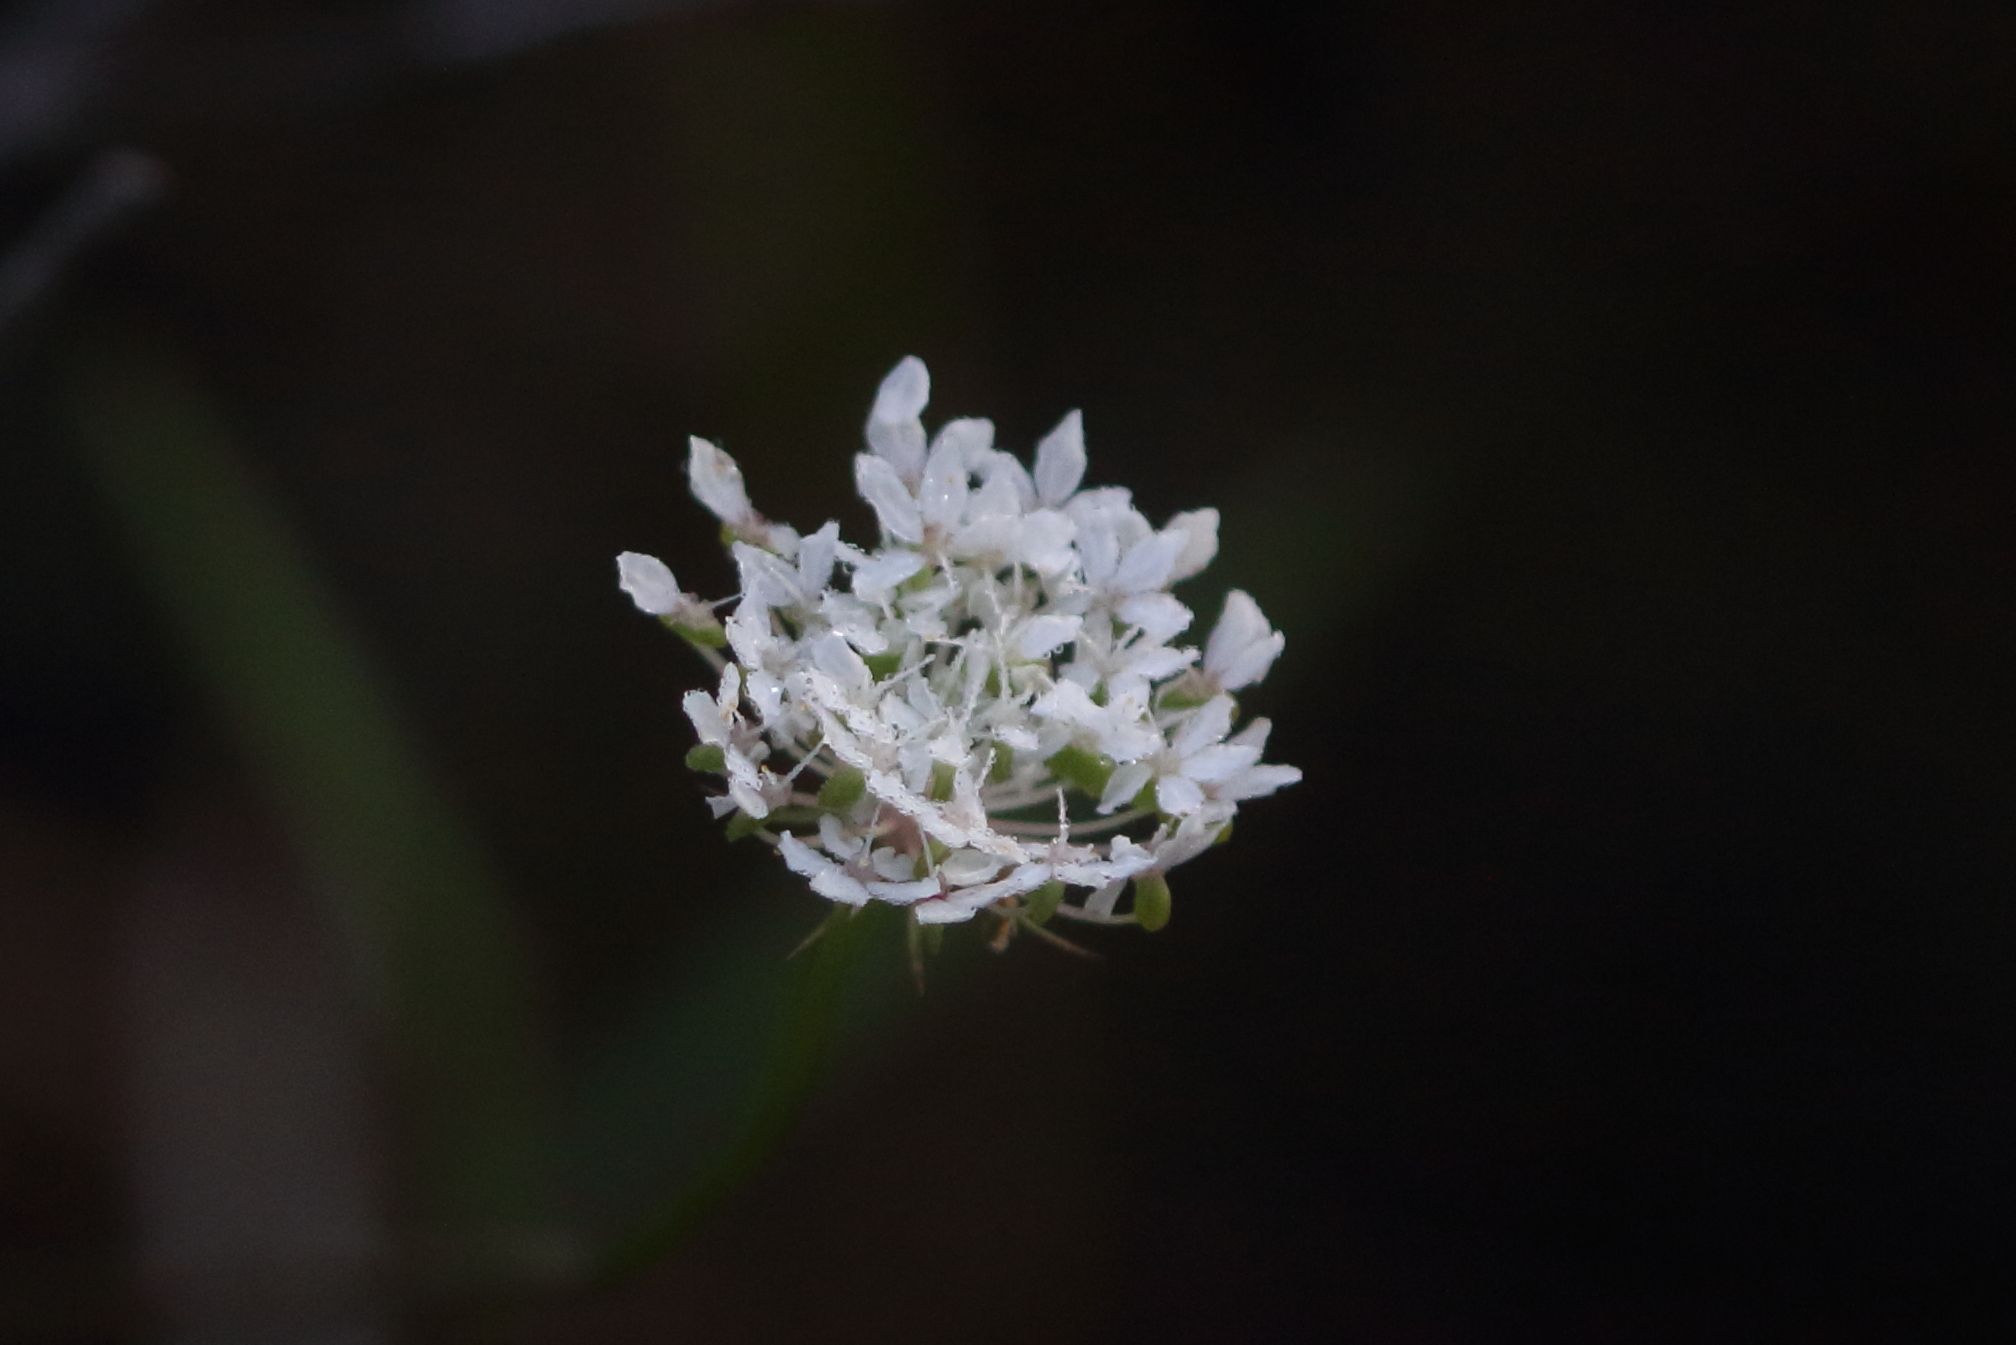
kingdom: Plantae
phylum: Tracheophyta
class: Magnoliopsida
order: Apiales
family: Araliaceae
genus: Trachymene
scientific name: Trachymene incisa
